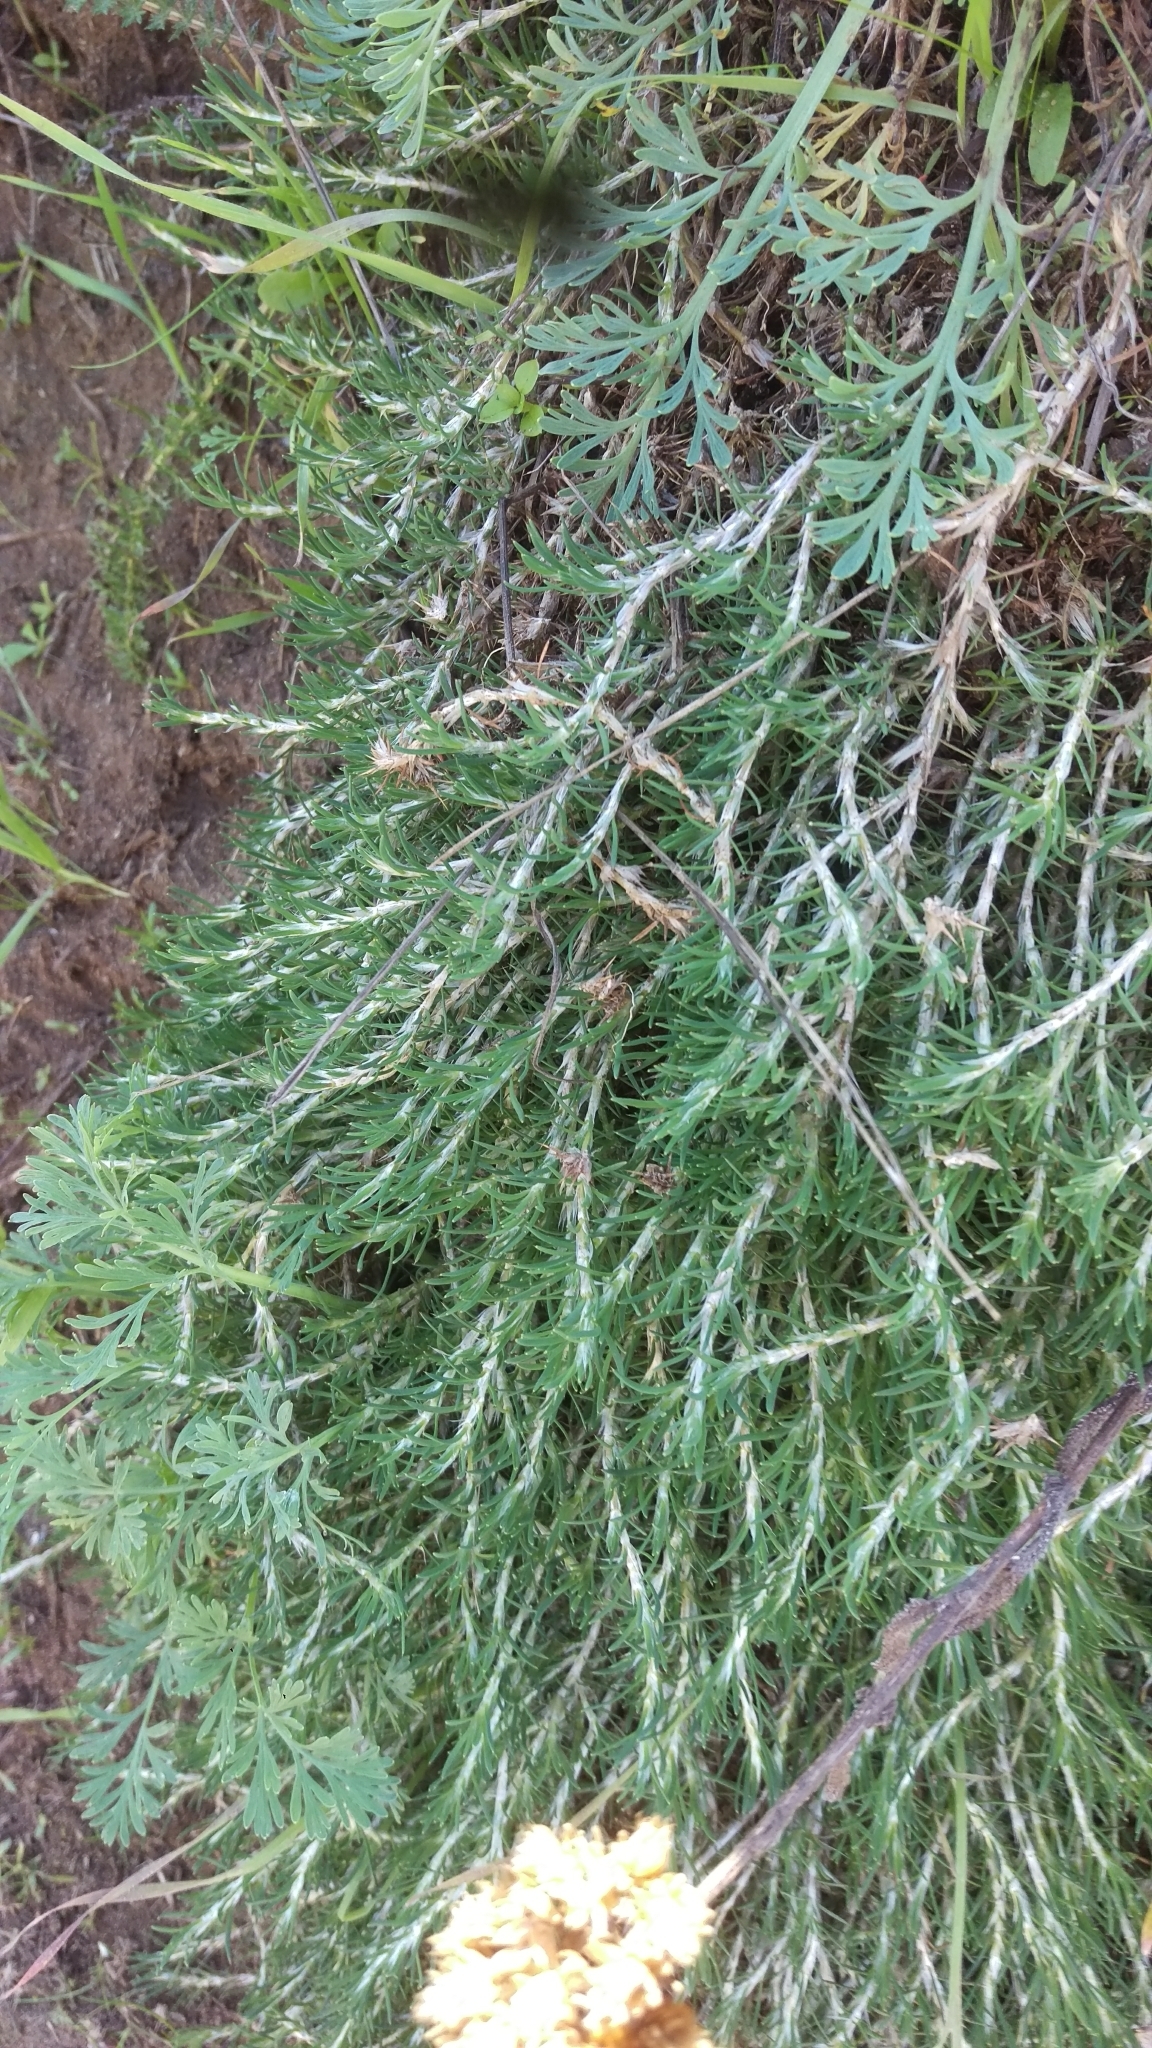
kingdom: Plantae
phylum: Tracheophyta
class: Magnoliopsida
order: Caryophyllales
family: Caryophyllaceae
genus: Cardionema
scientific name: Cardionema ramosissima
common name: Sandcarpet
